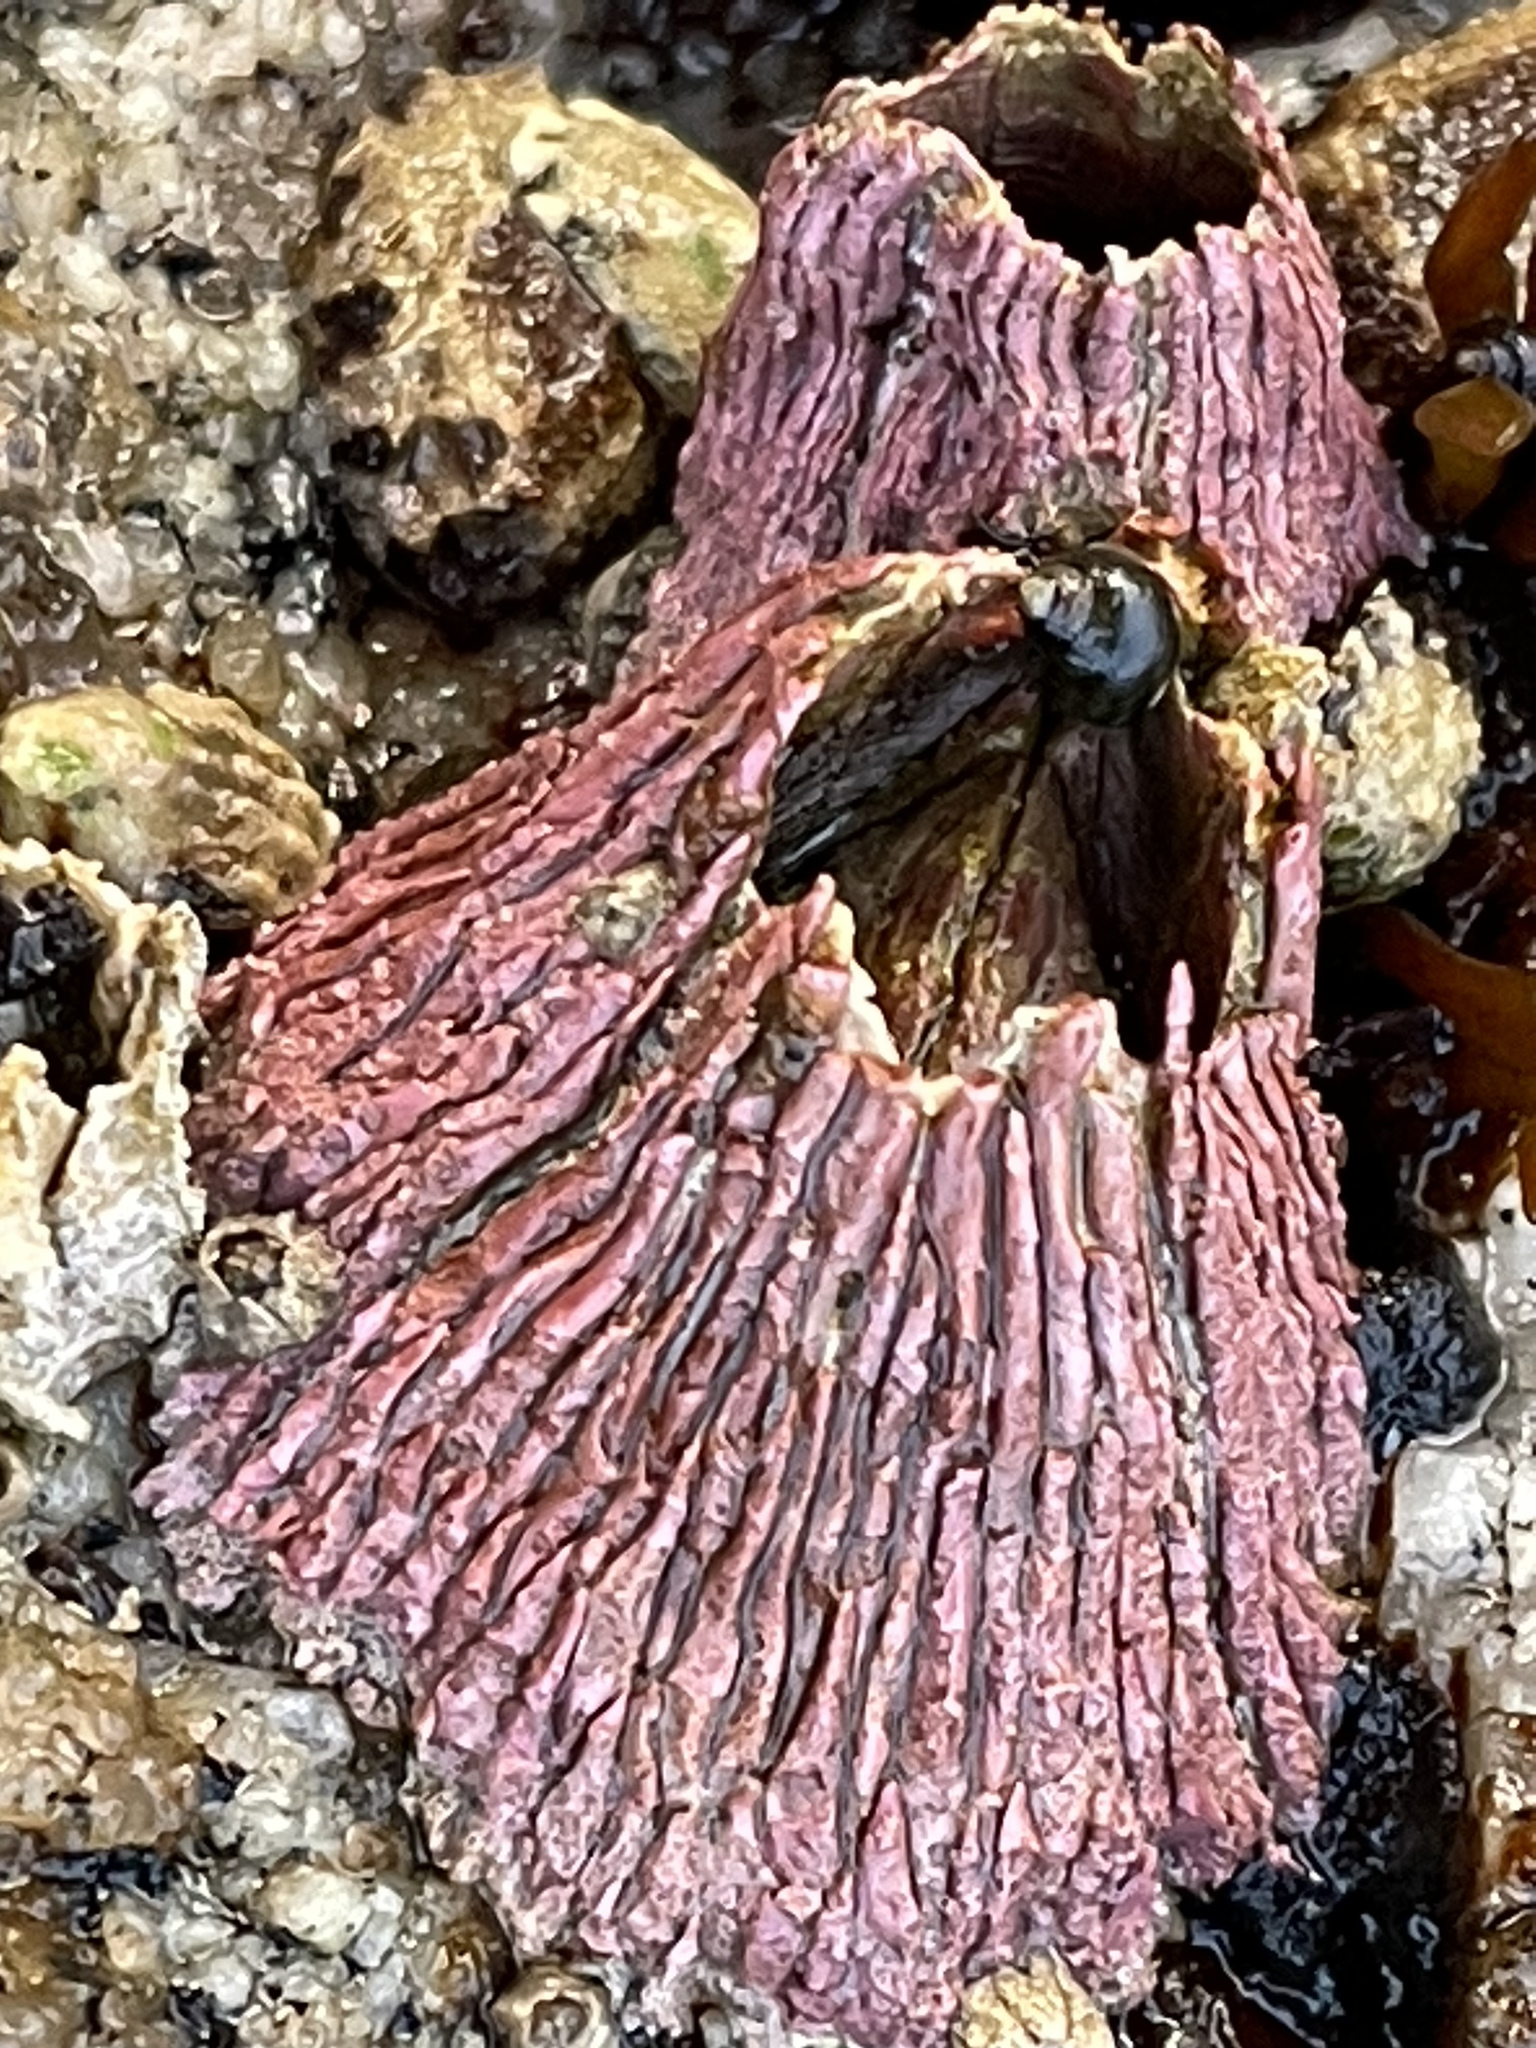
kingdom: Animalia
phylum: Arthropoda
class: Maxillopoda
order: Sessilia
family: Tetraclitidae
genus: Tetraclita
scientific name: Tetraclita rubescens
